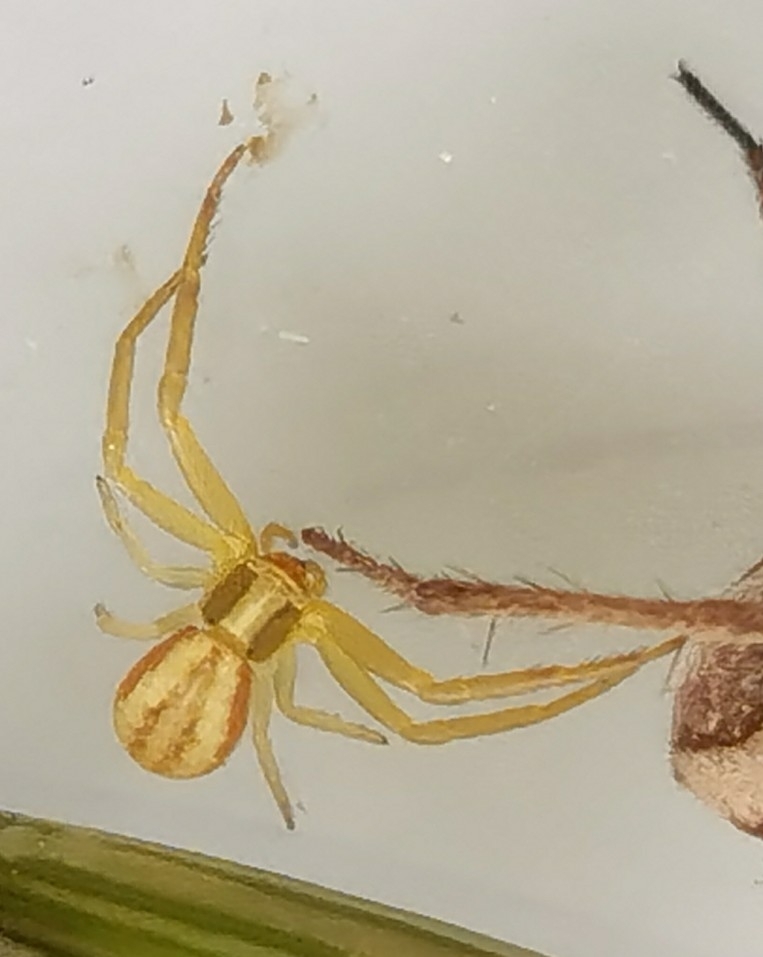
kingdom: Animalia
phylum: Arthropoda
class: Arachnida
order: Araneae
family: Thomisidae
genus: Runcinia
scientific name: Runcinia grammica
